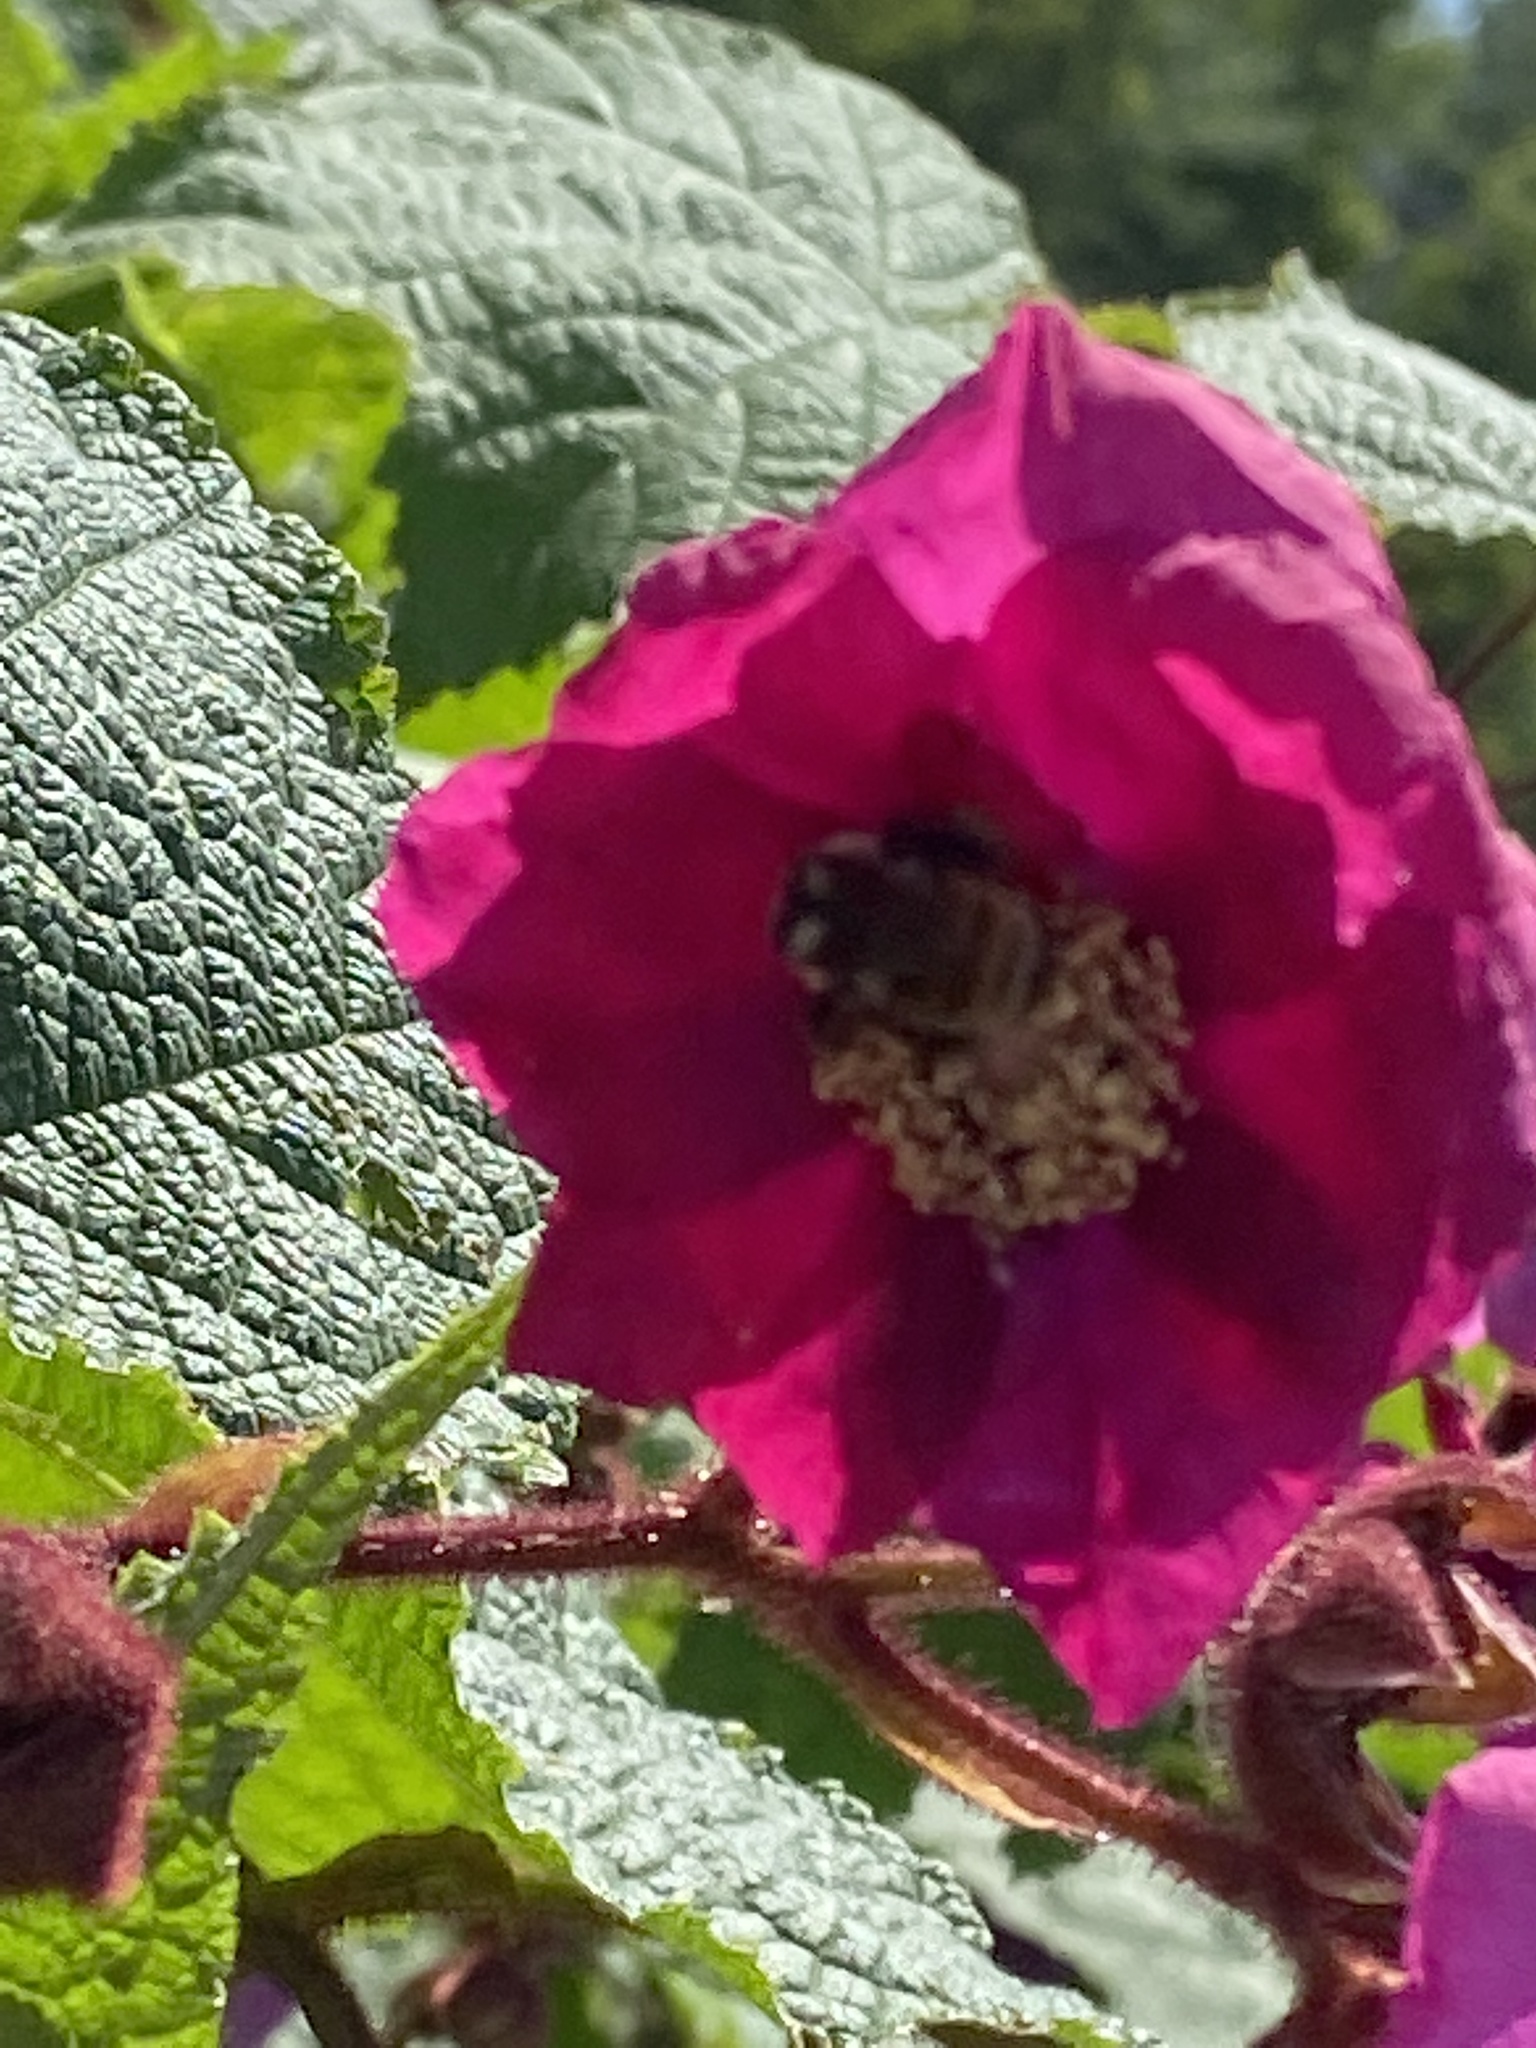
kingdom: Animalia
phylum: Arthropoda
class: Insecta
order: Hymenoptera
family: Apidae
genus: Bombus
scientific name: Bombus ternarius
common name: Tri-colored bumble bee
